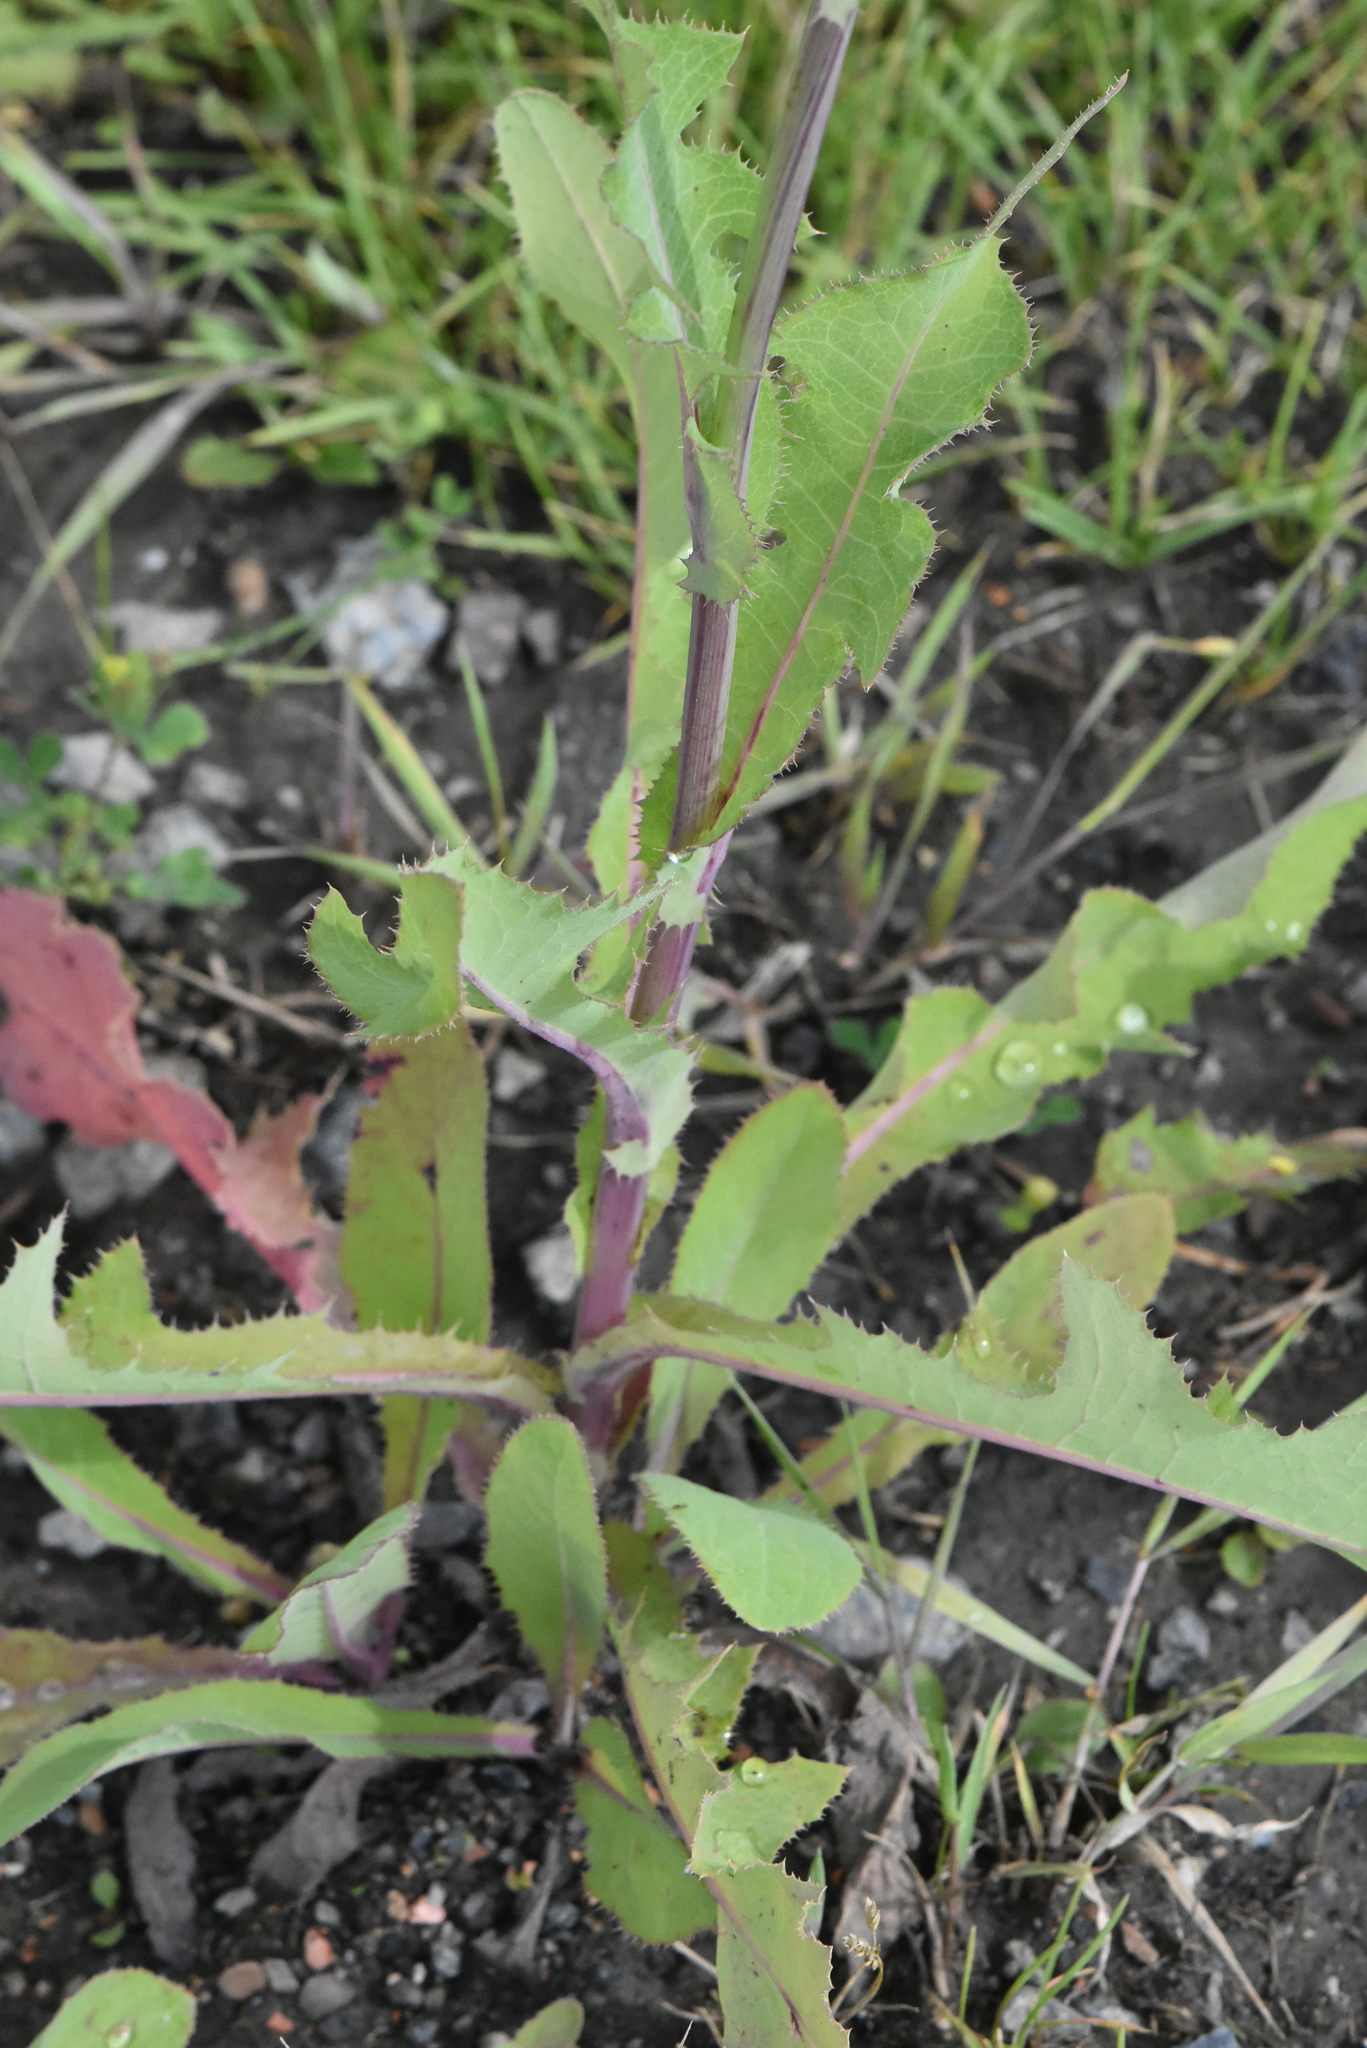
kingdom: Plantae
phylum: Tracheophyta
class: Magnoliopsida
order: Asterales
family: Asteraceae
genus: Sonchus
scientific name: Sonchus arvensis
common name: Perennial sow-thistle
